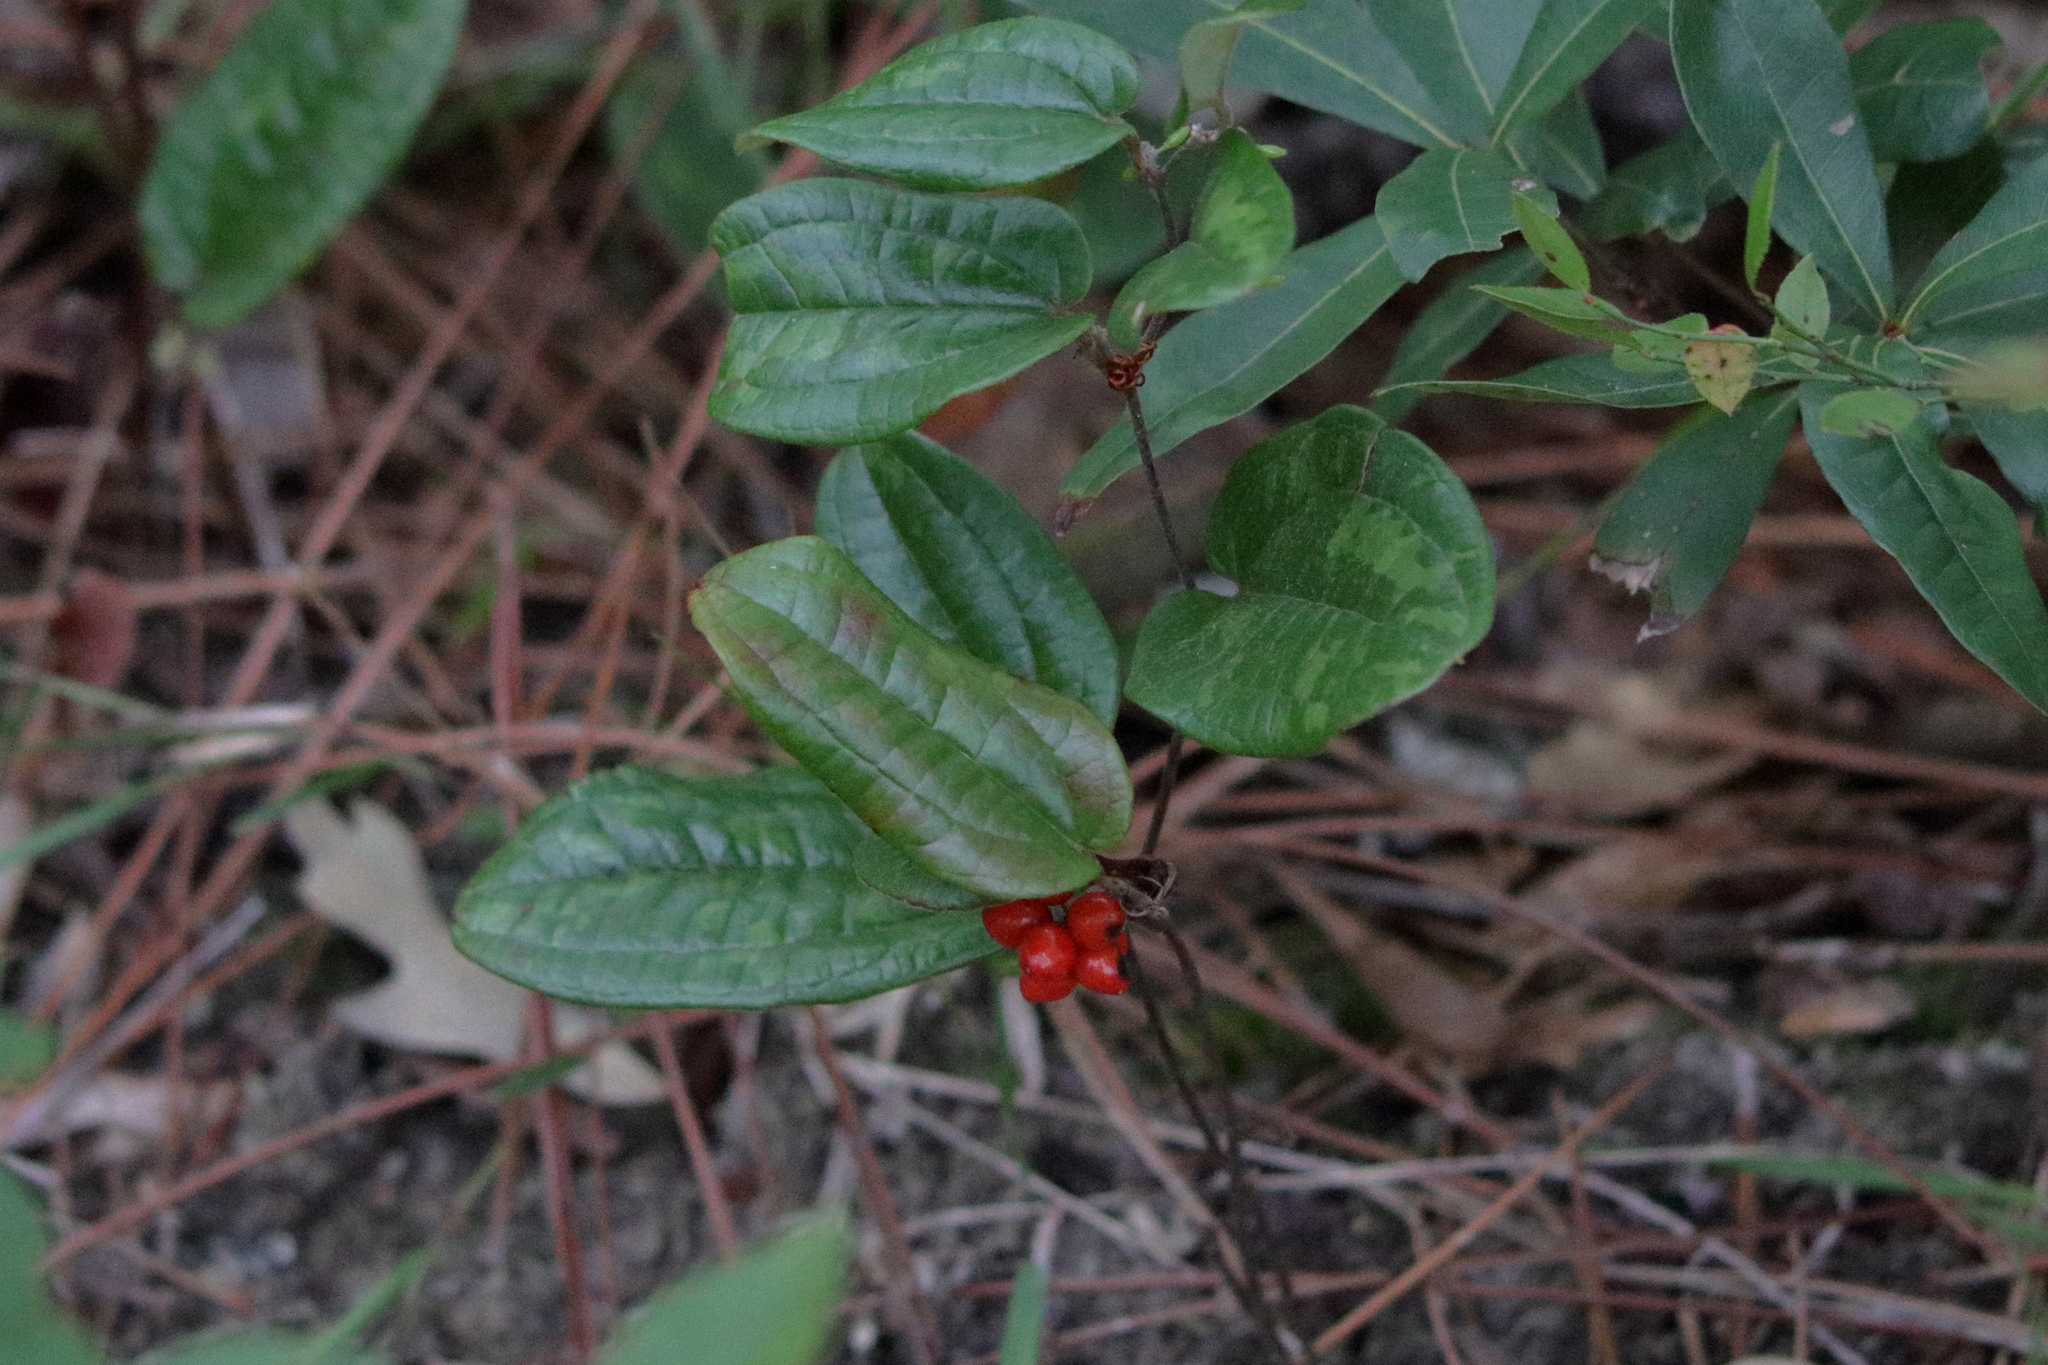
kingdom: Plantae
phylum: Tracheophyta
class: Liliopsida
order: Liliales
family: Smilacaceae
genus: Smilax
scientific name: Smilax pumila
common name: Sarsaparilla-vine
